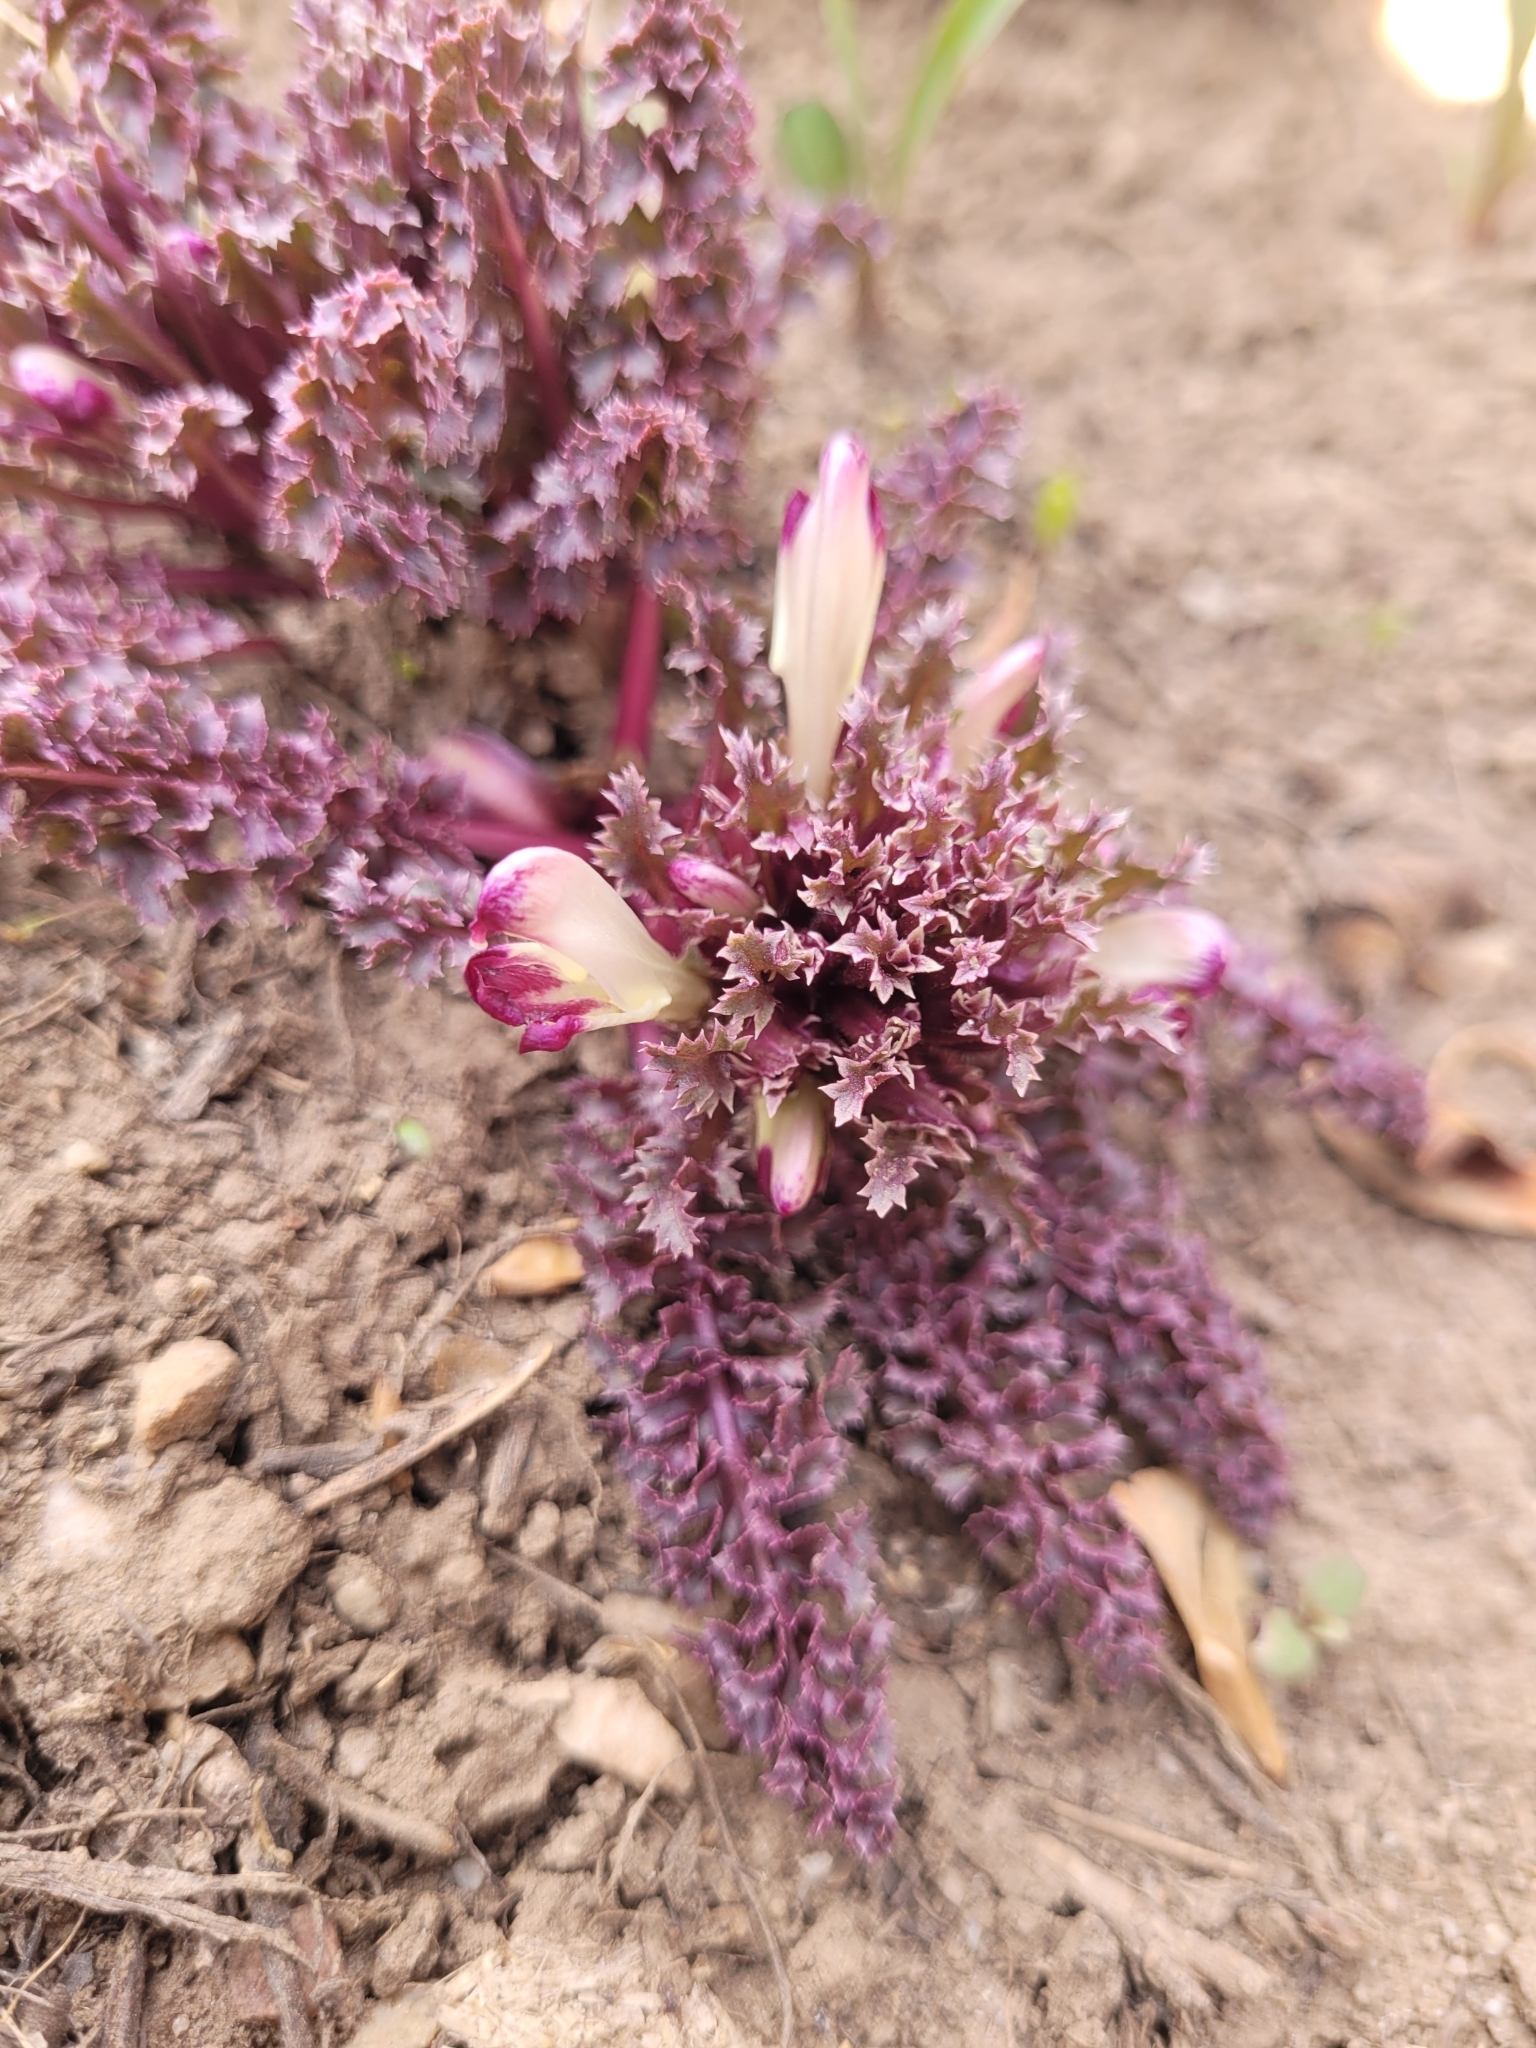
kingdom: Plantae
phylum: Tracheophyta
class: Magnoliopsida
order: Lamiales
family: Orobanchaceae
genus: Pedicularis
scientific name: Pedicularis centranthera
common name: Dwarf lousewort
